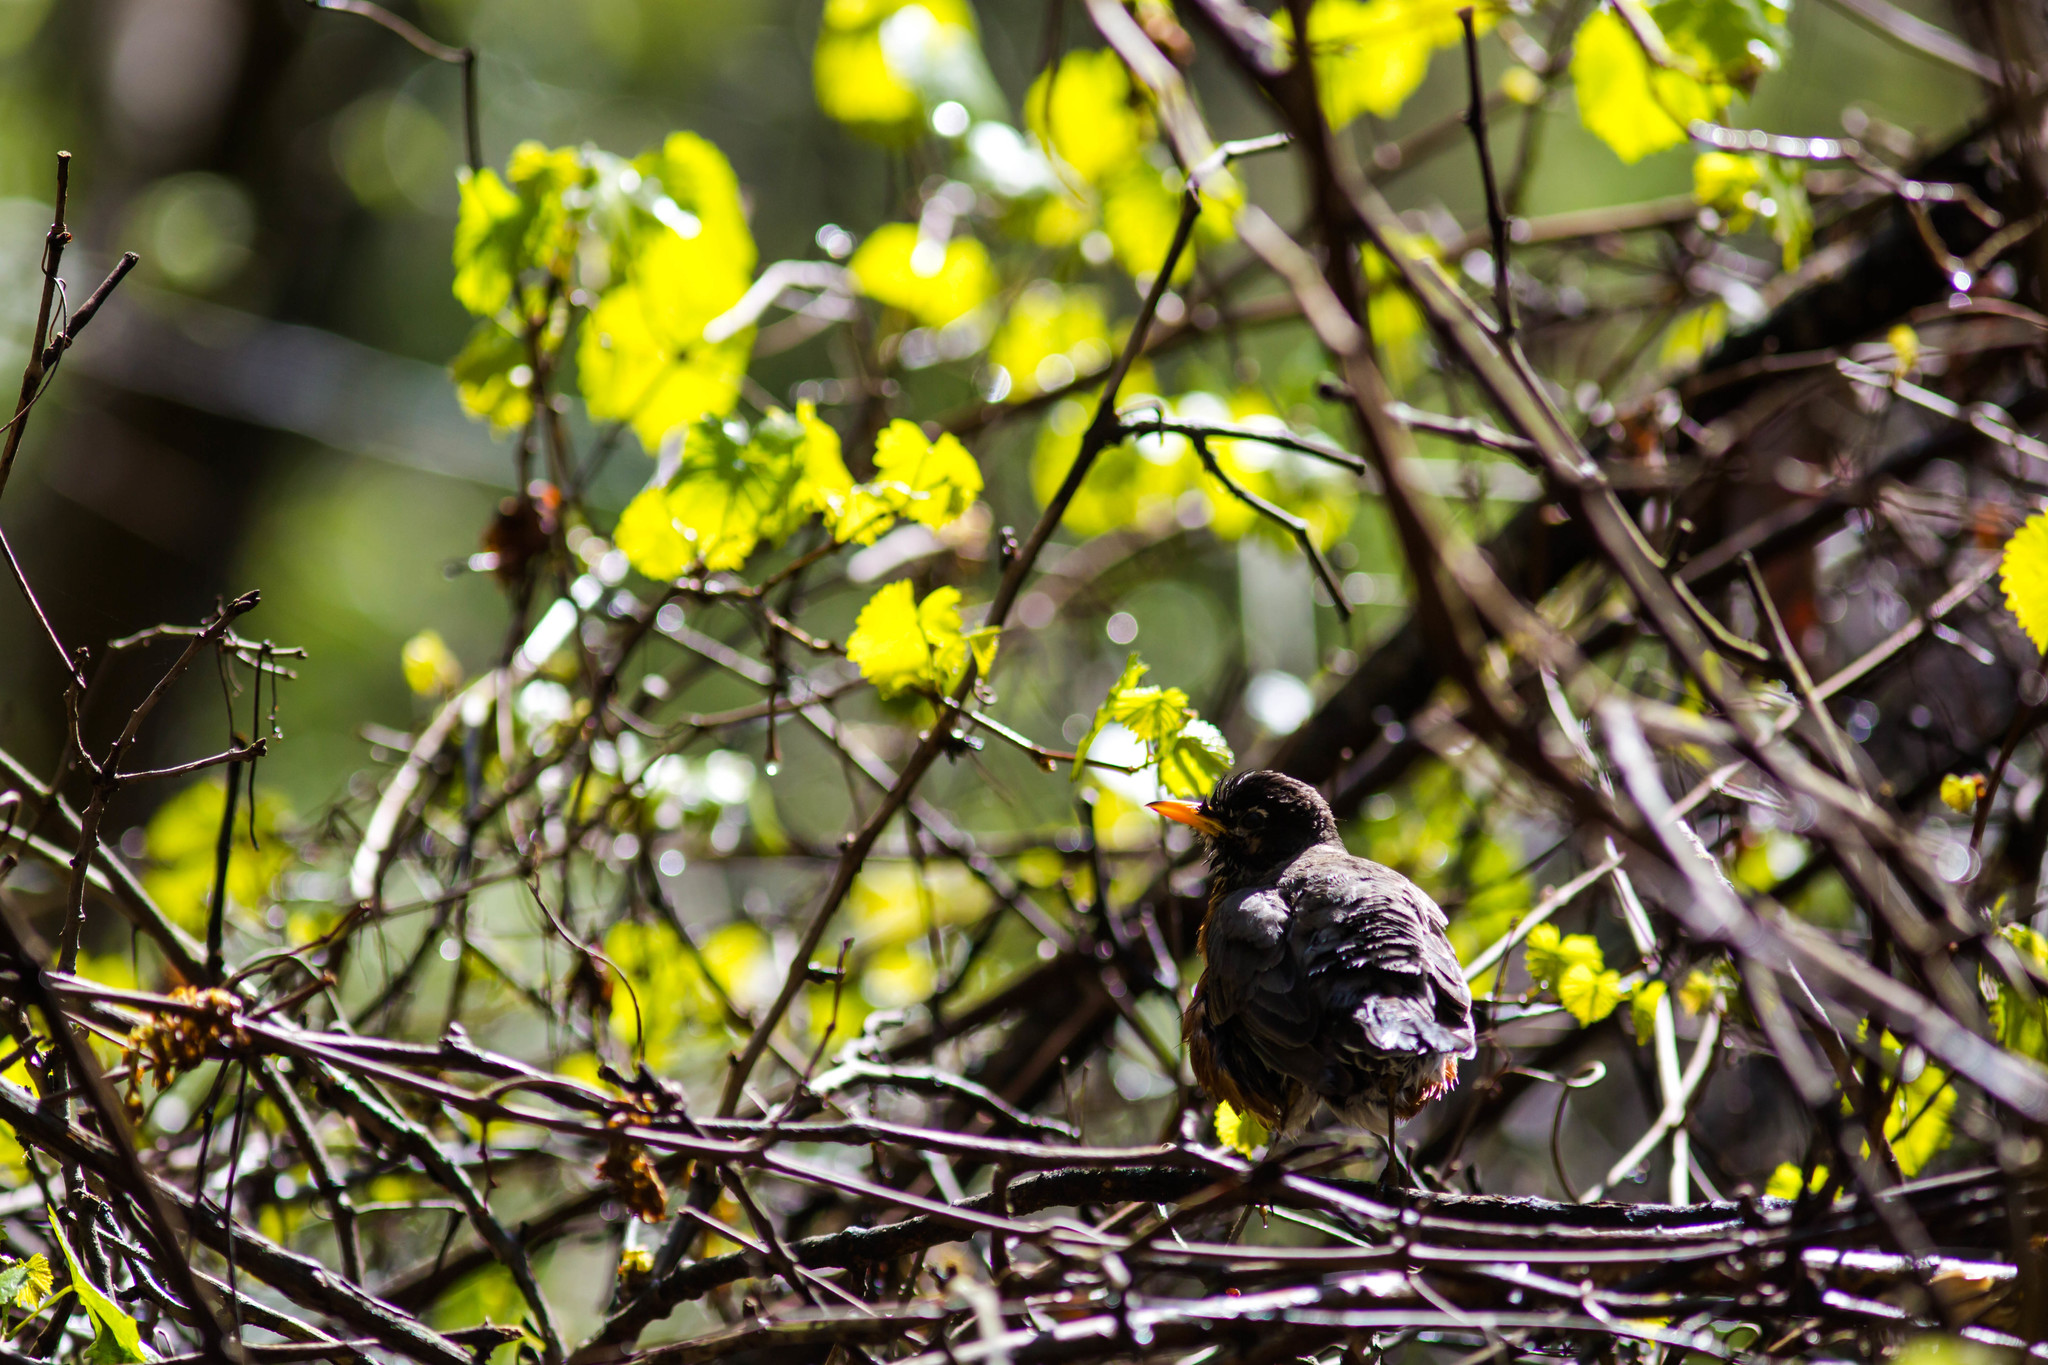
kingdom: Animalia
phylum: Chordata
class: Aves
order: Passeriformes
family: Turdidae
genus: Turdus
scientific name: Turdus migratorius
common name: American robin
